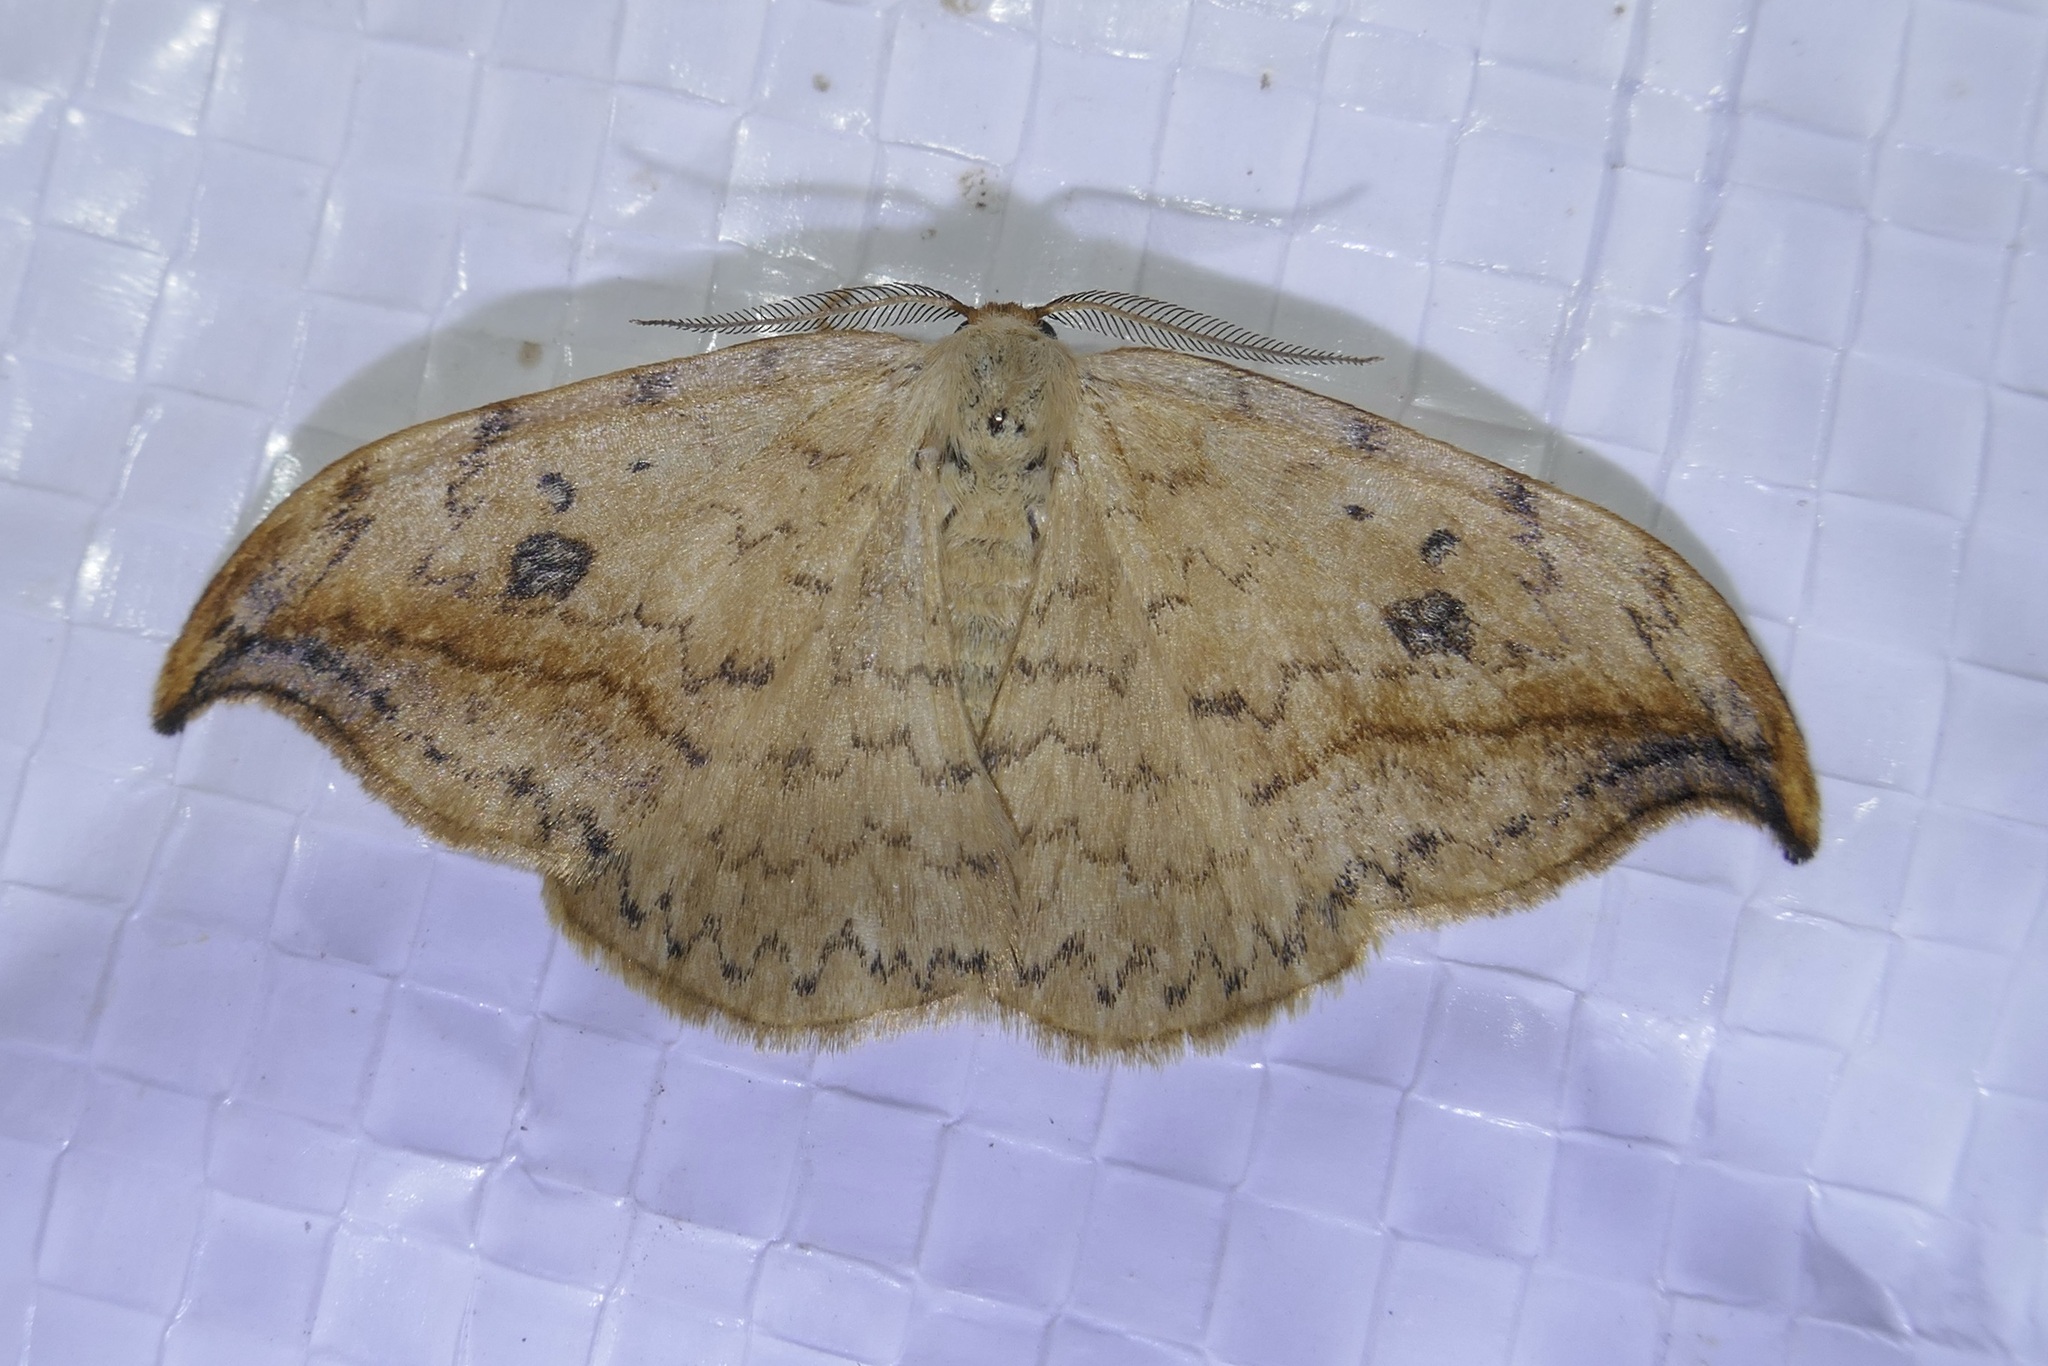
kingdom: Animalia
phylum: Arthropoda
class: Insecta
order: Lepidoptera
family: Drepanidae
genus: Drepana
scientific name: Drepana falcataria
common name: Pebble hook-tip
